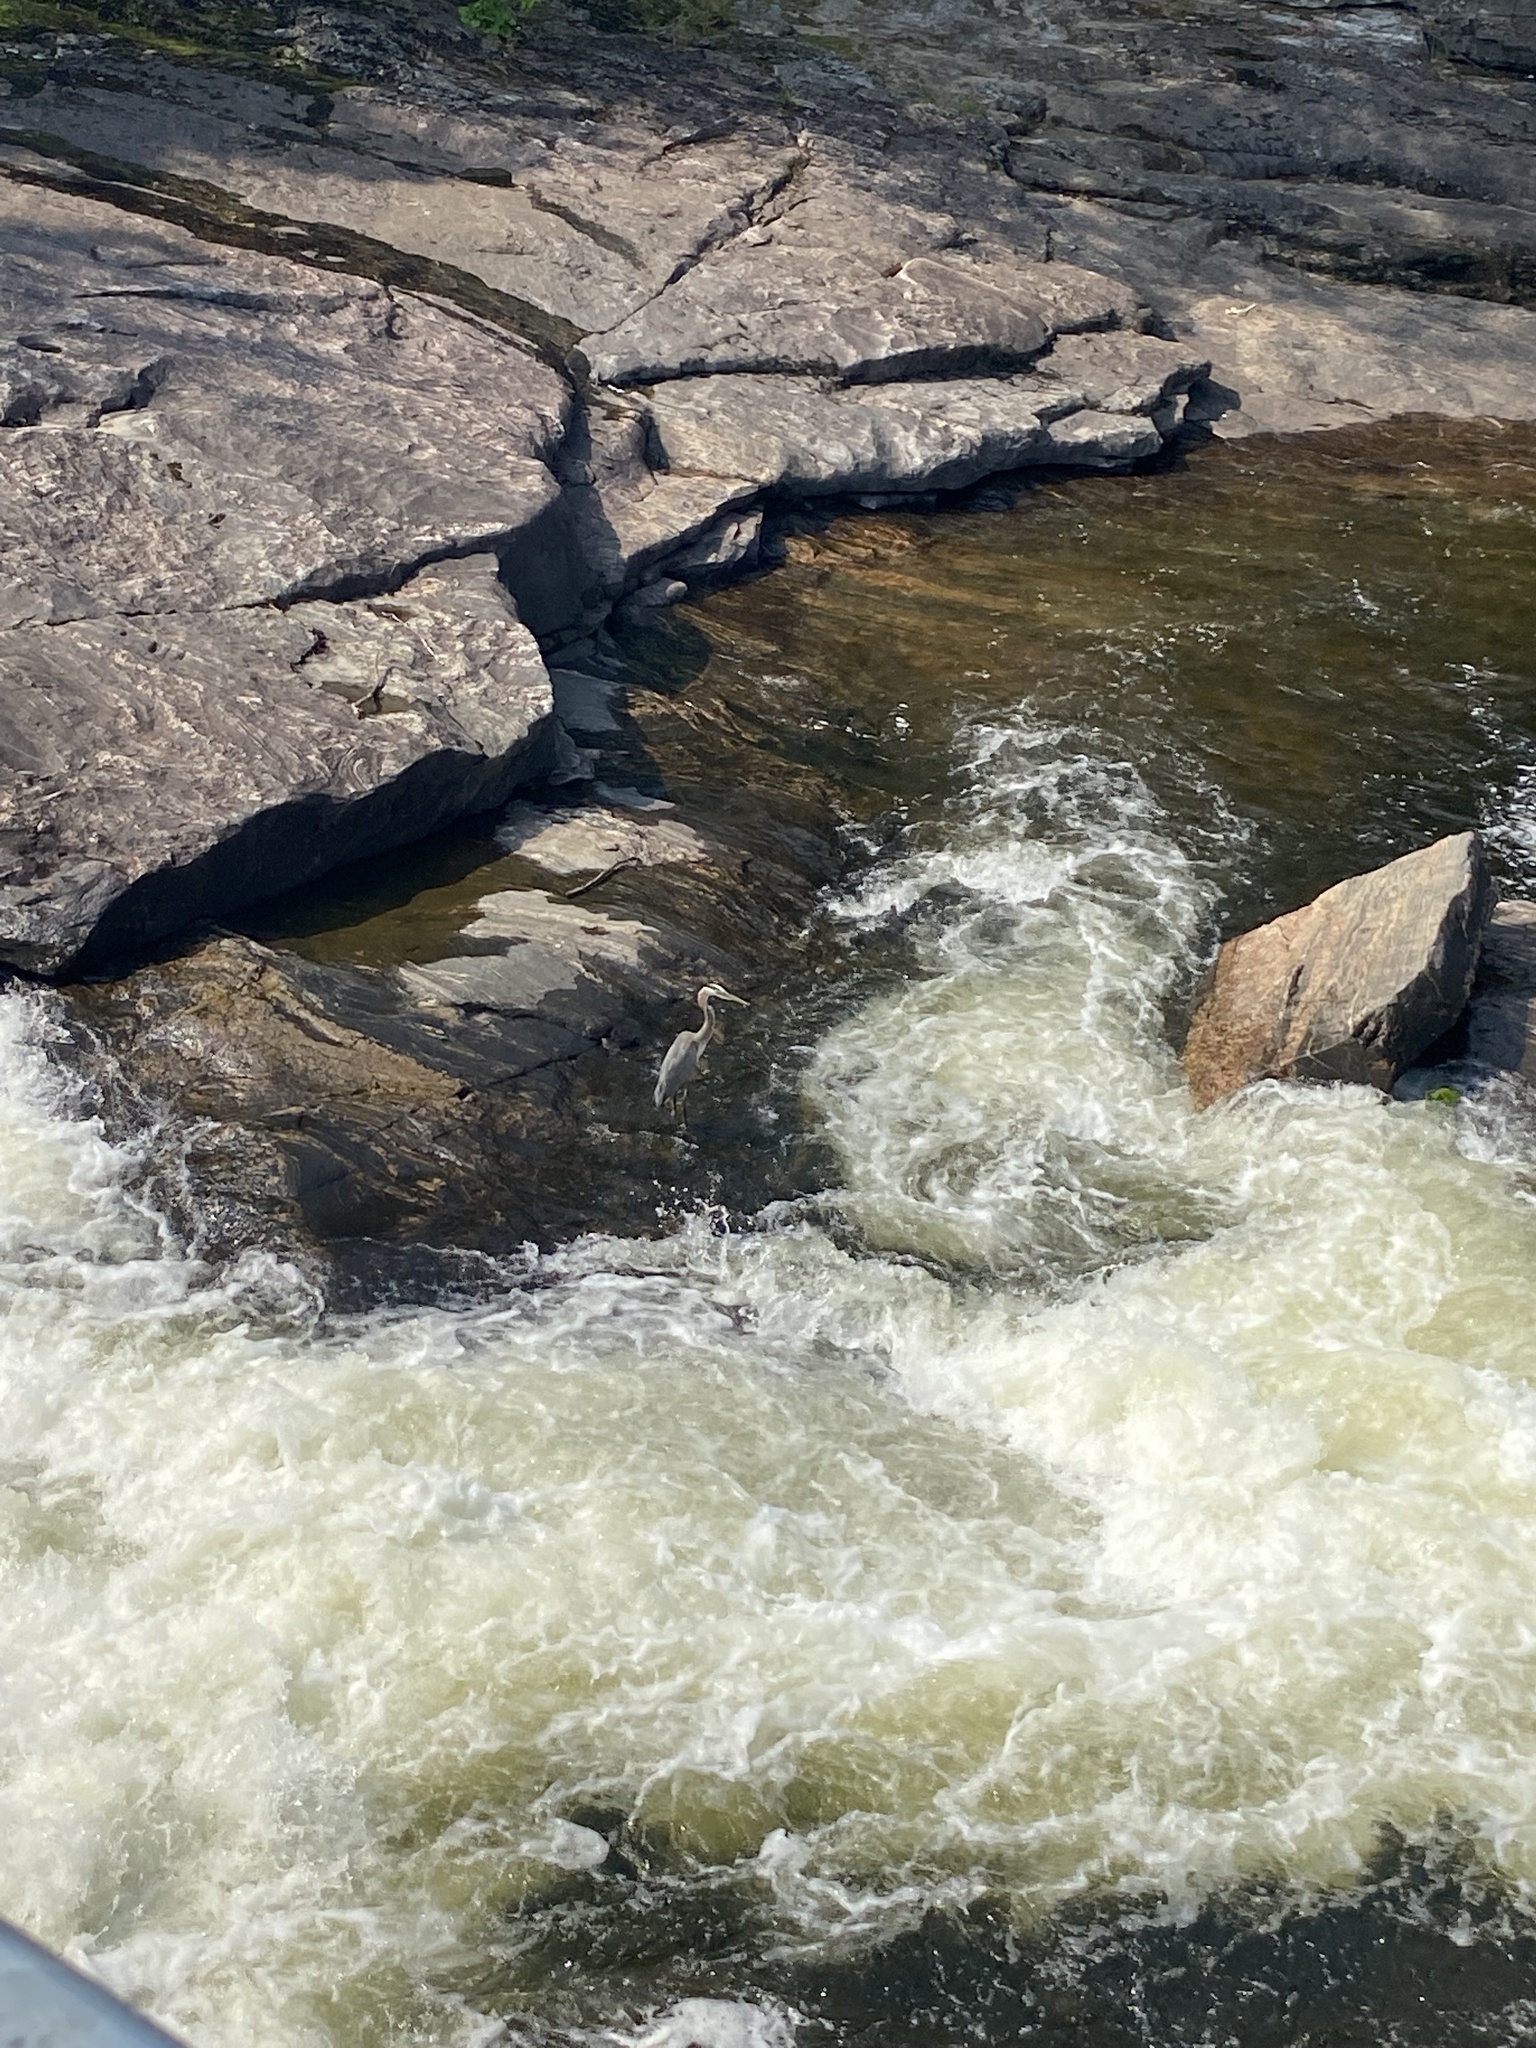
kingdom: Animalia
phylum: Chordata
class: Aves
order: Pelecaniformes
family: Ardeidae
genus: Ardea
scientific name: Ardea herodias
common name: Great blue heron
